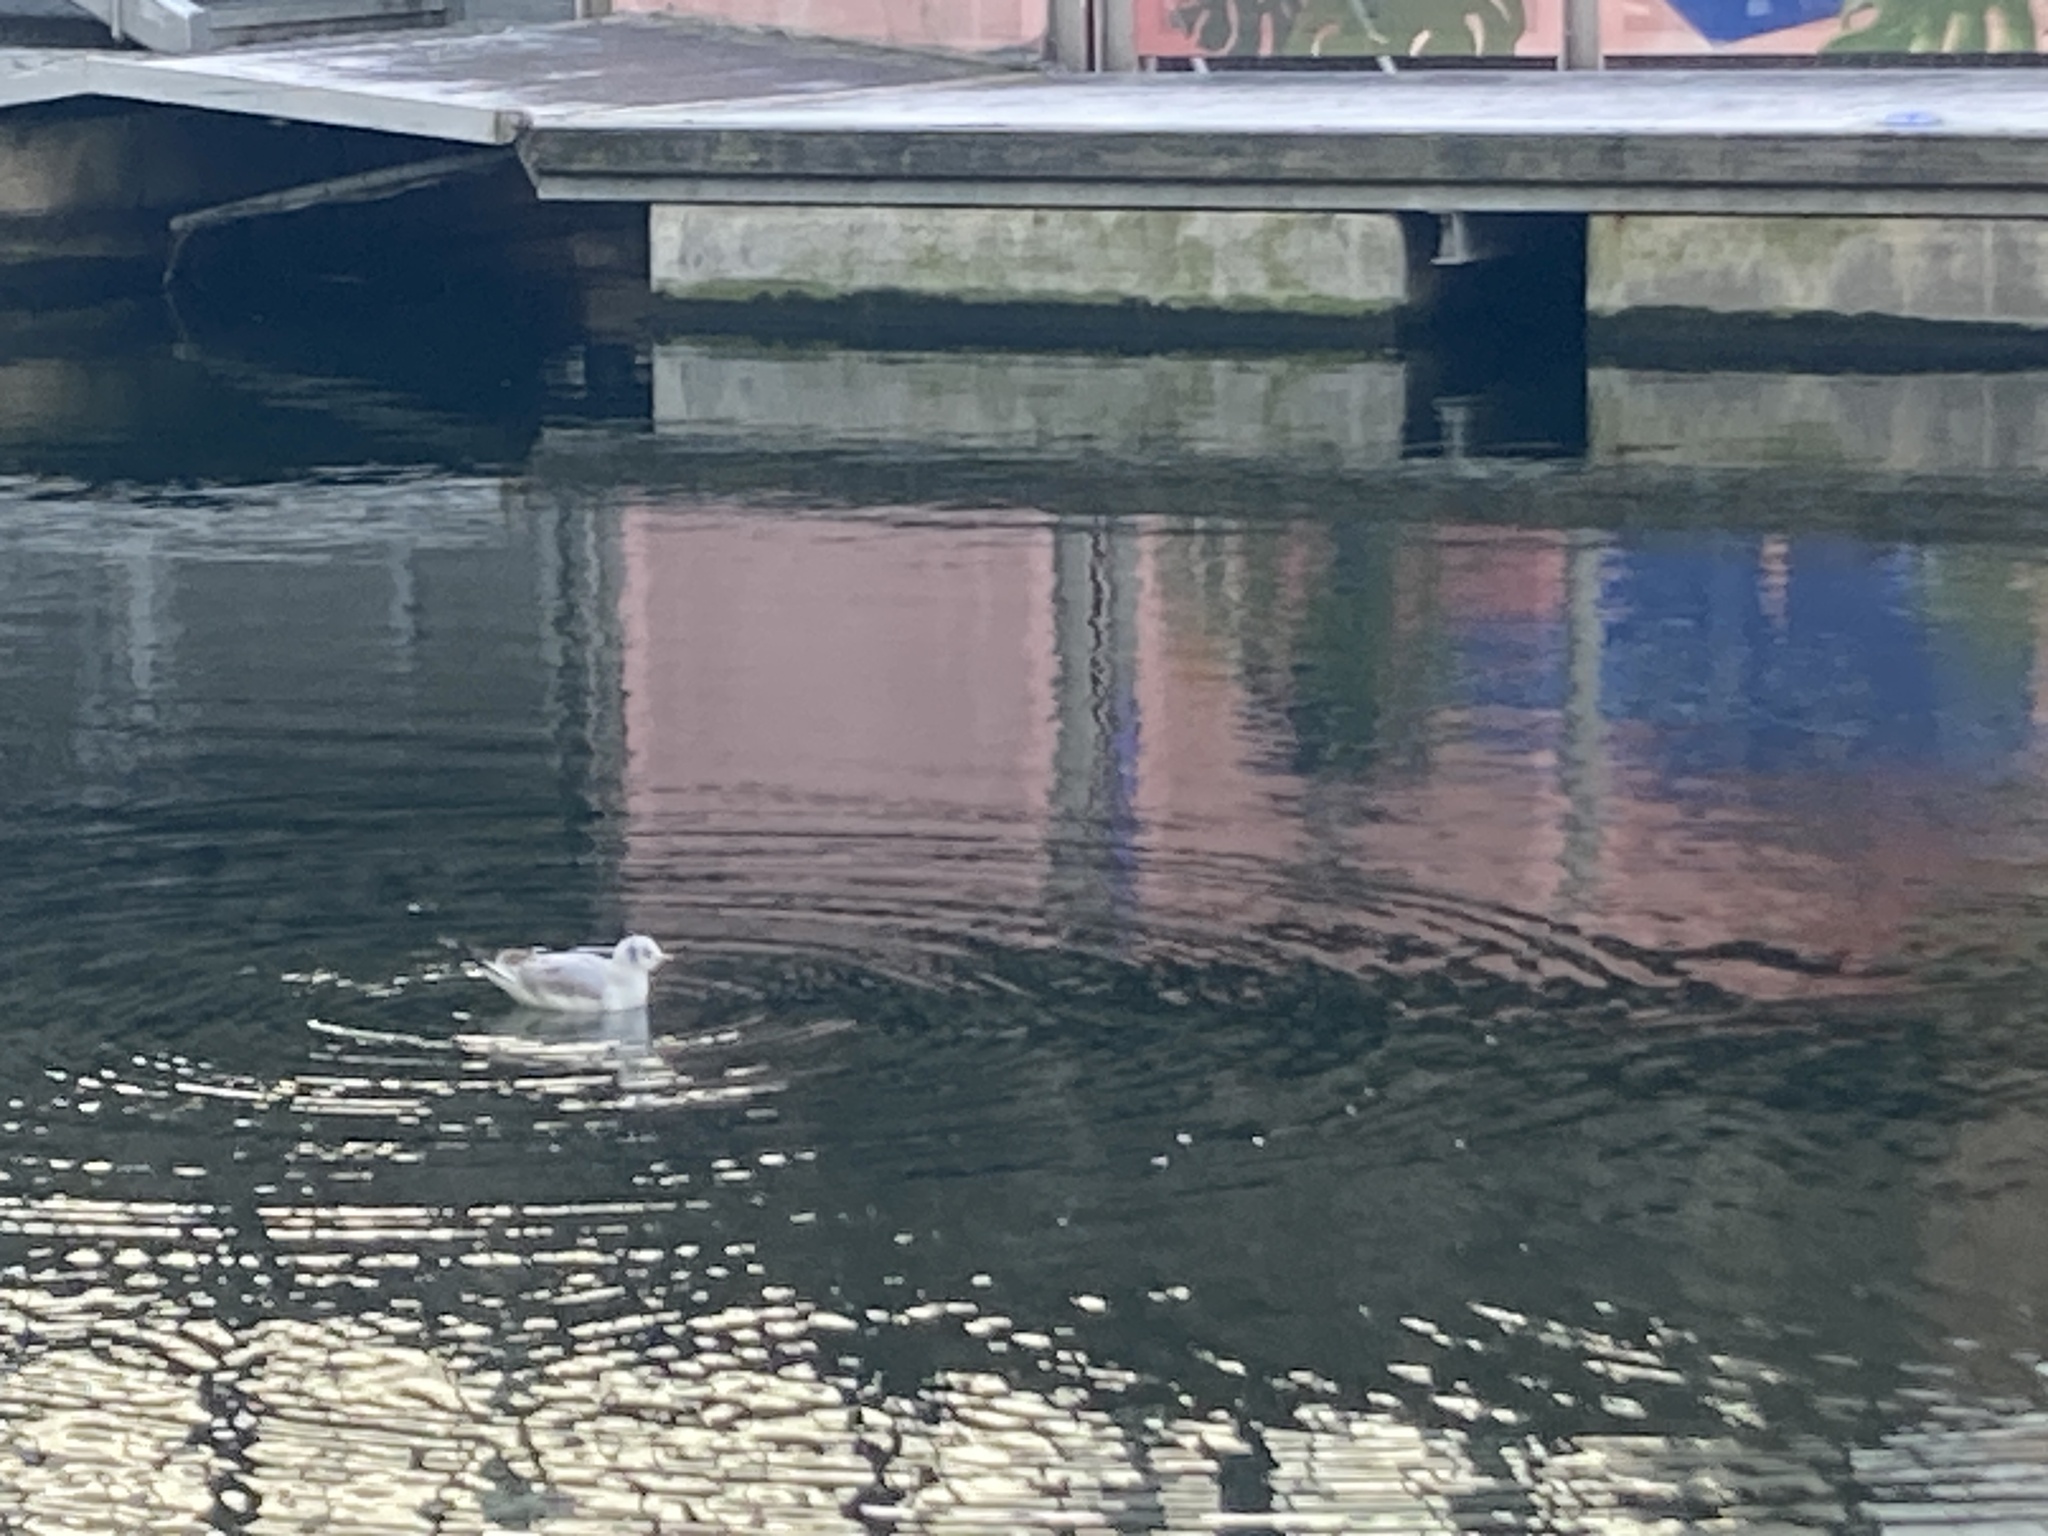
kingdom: Animalia
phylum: Chordata
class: Aves
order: Charadriiformes
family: Laridae
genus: Chroicocephalus
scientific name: Chroicocephalus ridibundus
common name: Black-headed gull
